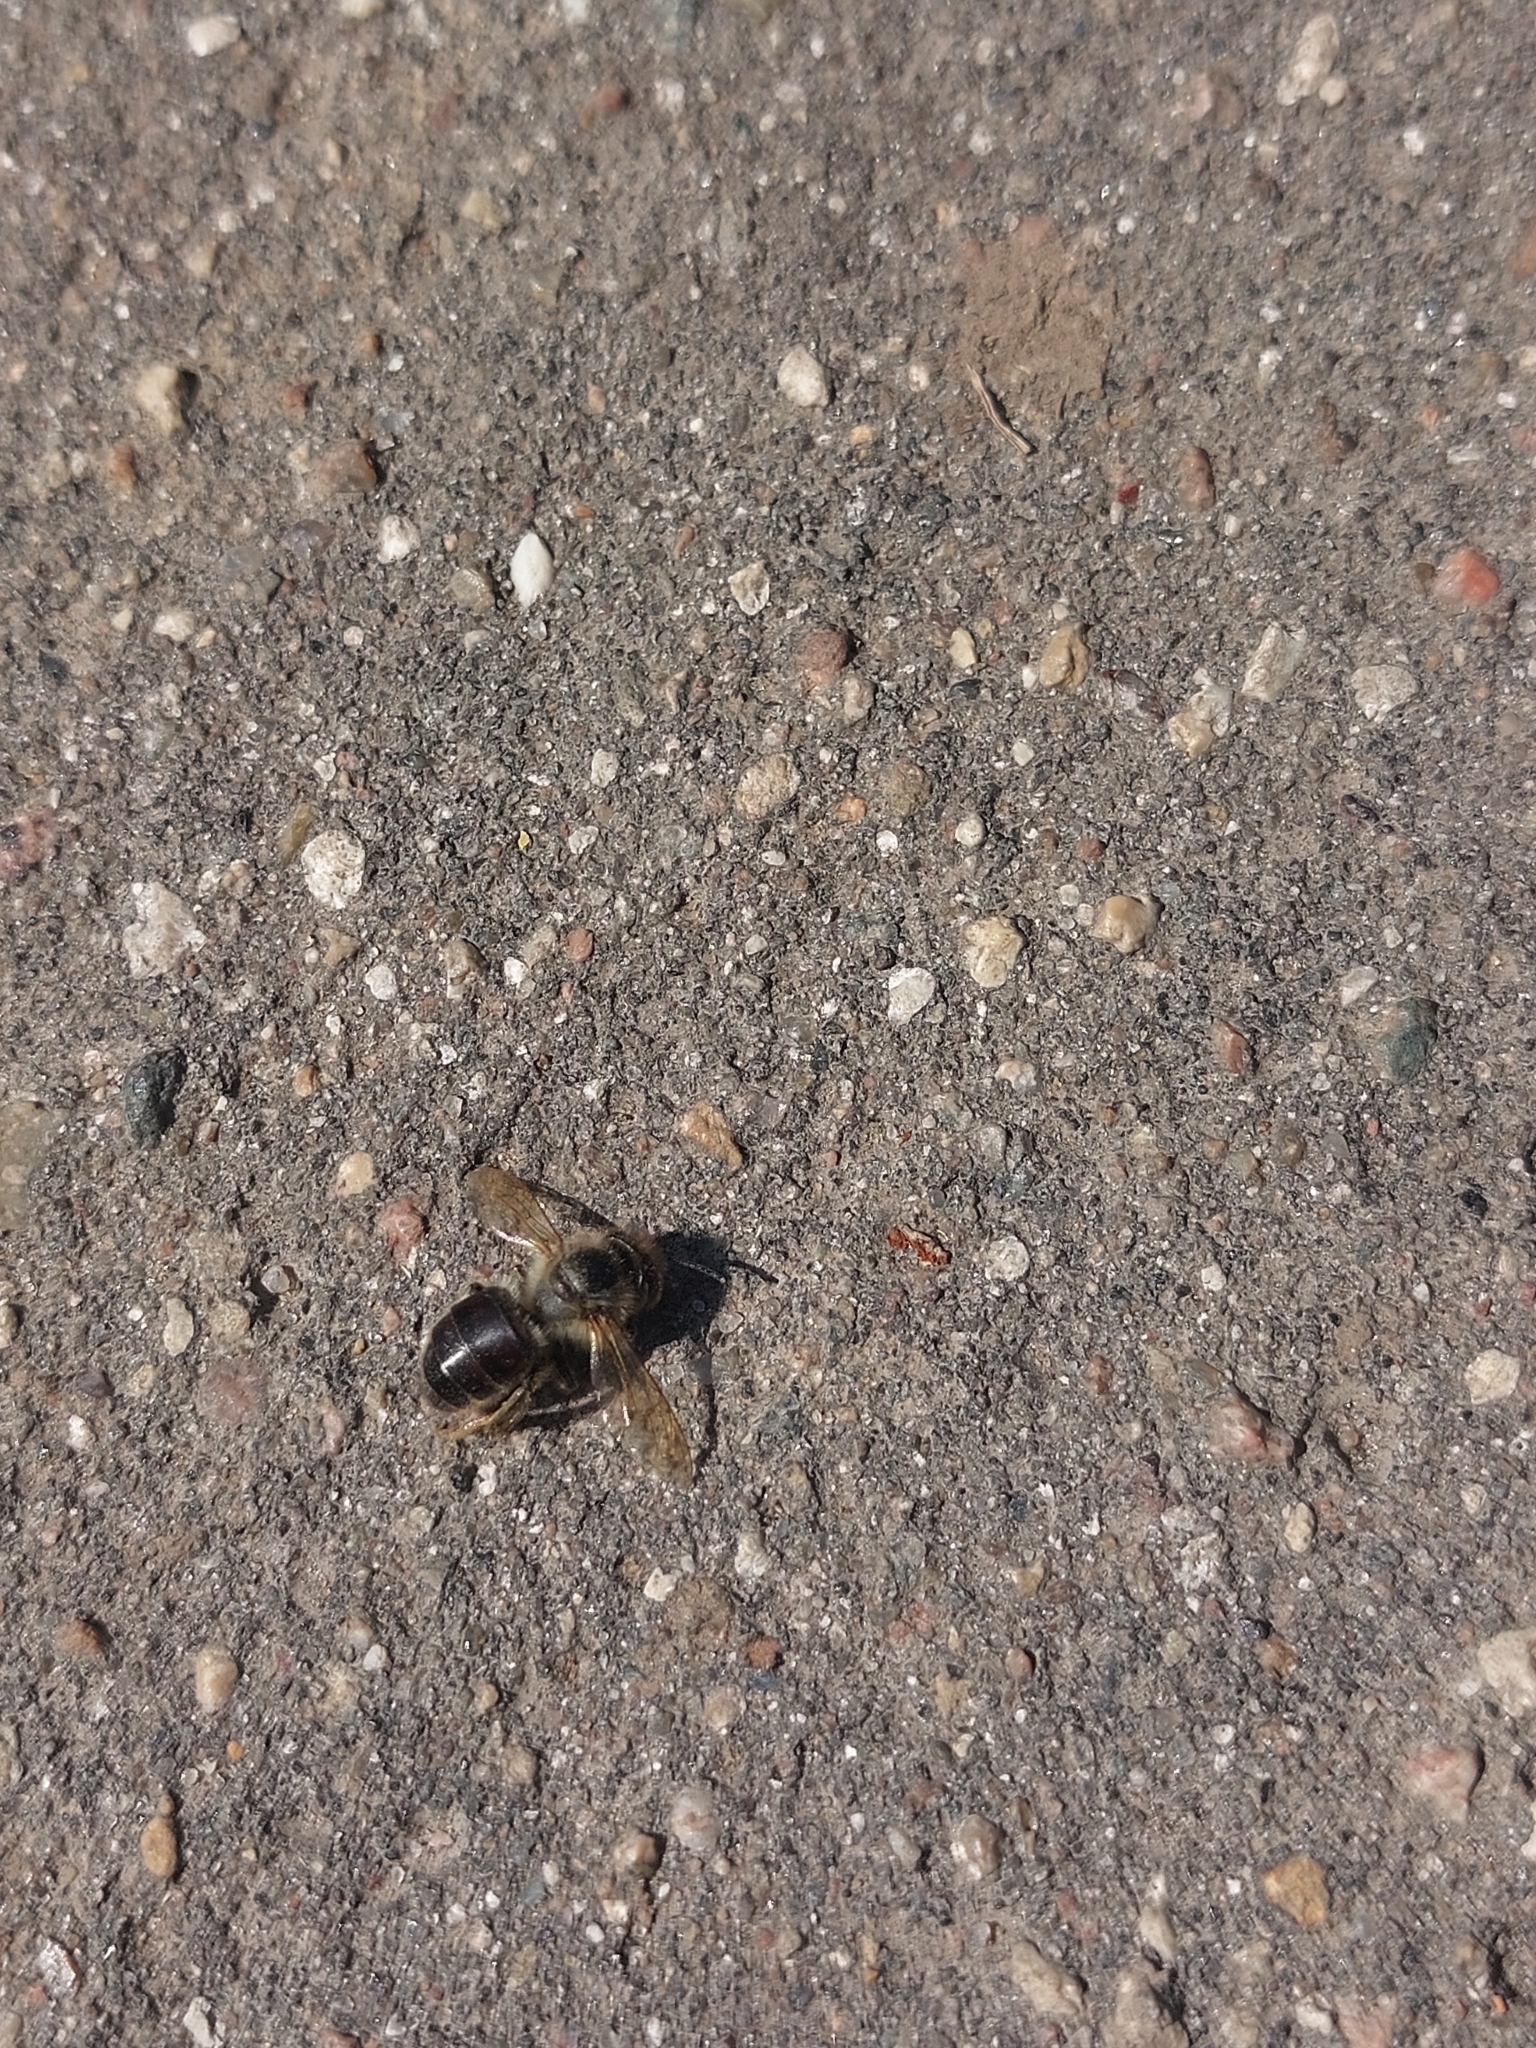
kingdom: Animalia
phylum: Arthropoda
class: Insecta
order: Hymenoptera
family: Apidae
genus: Apis
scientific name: Apis mellifera
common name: Honey bee
